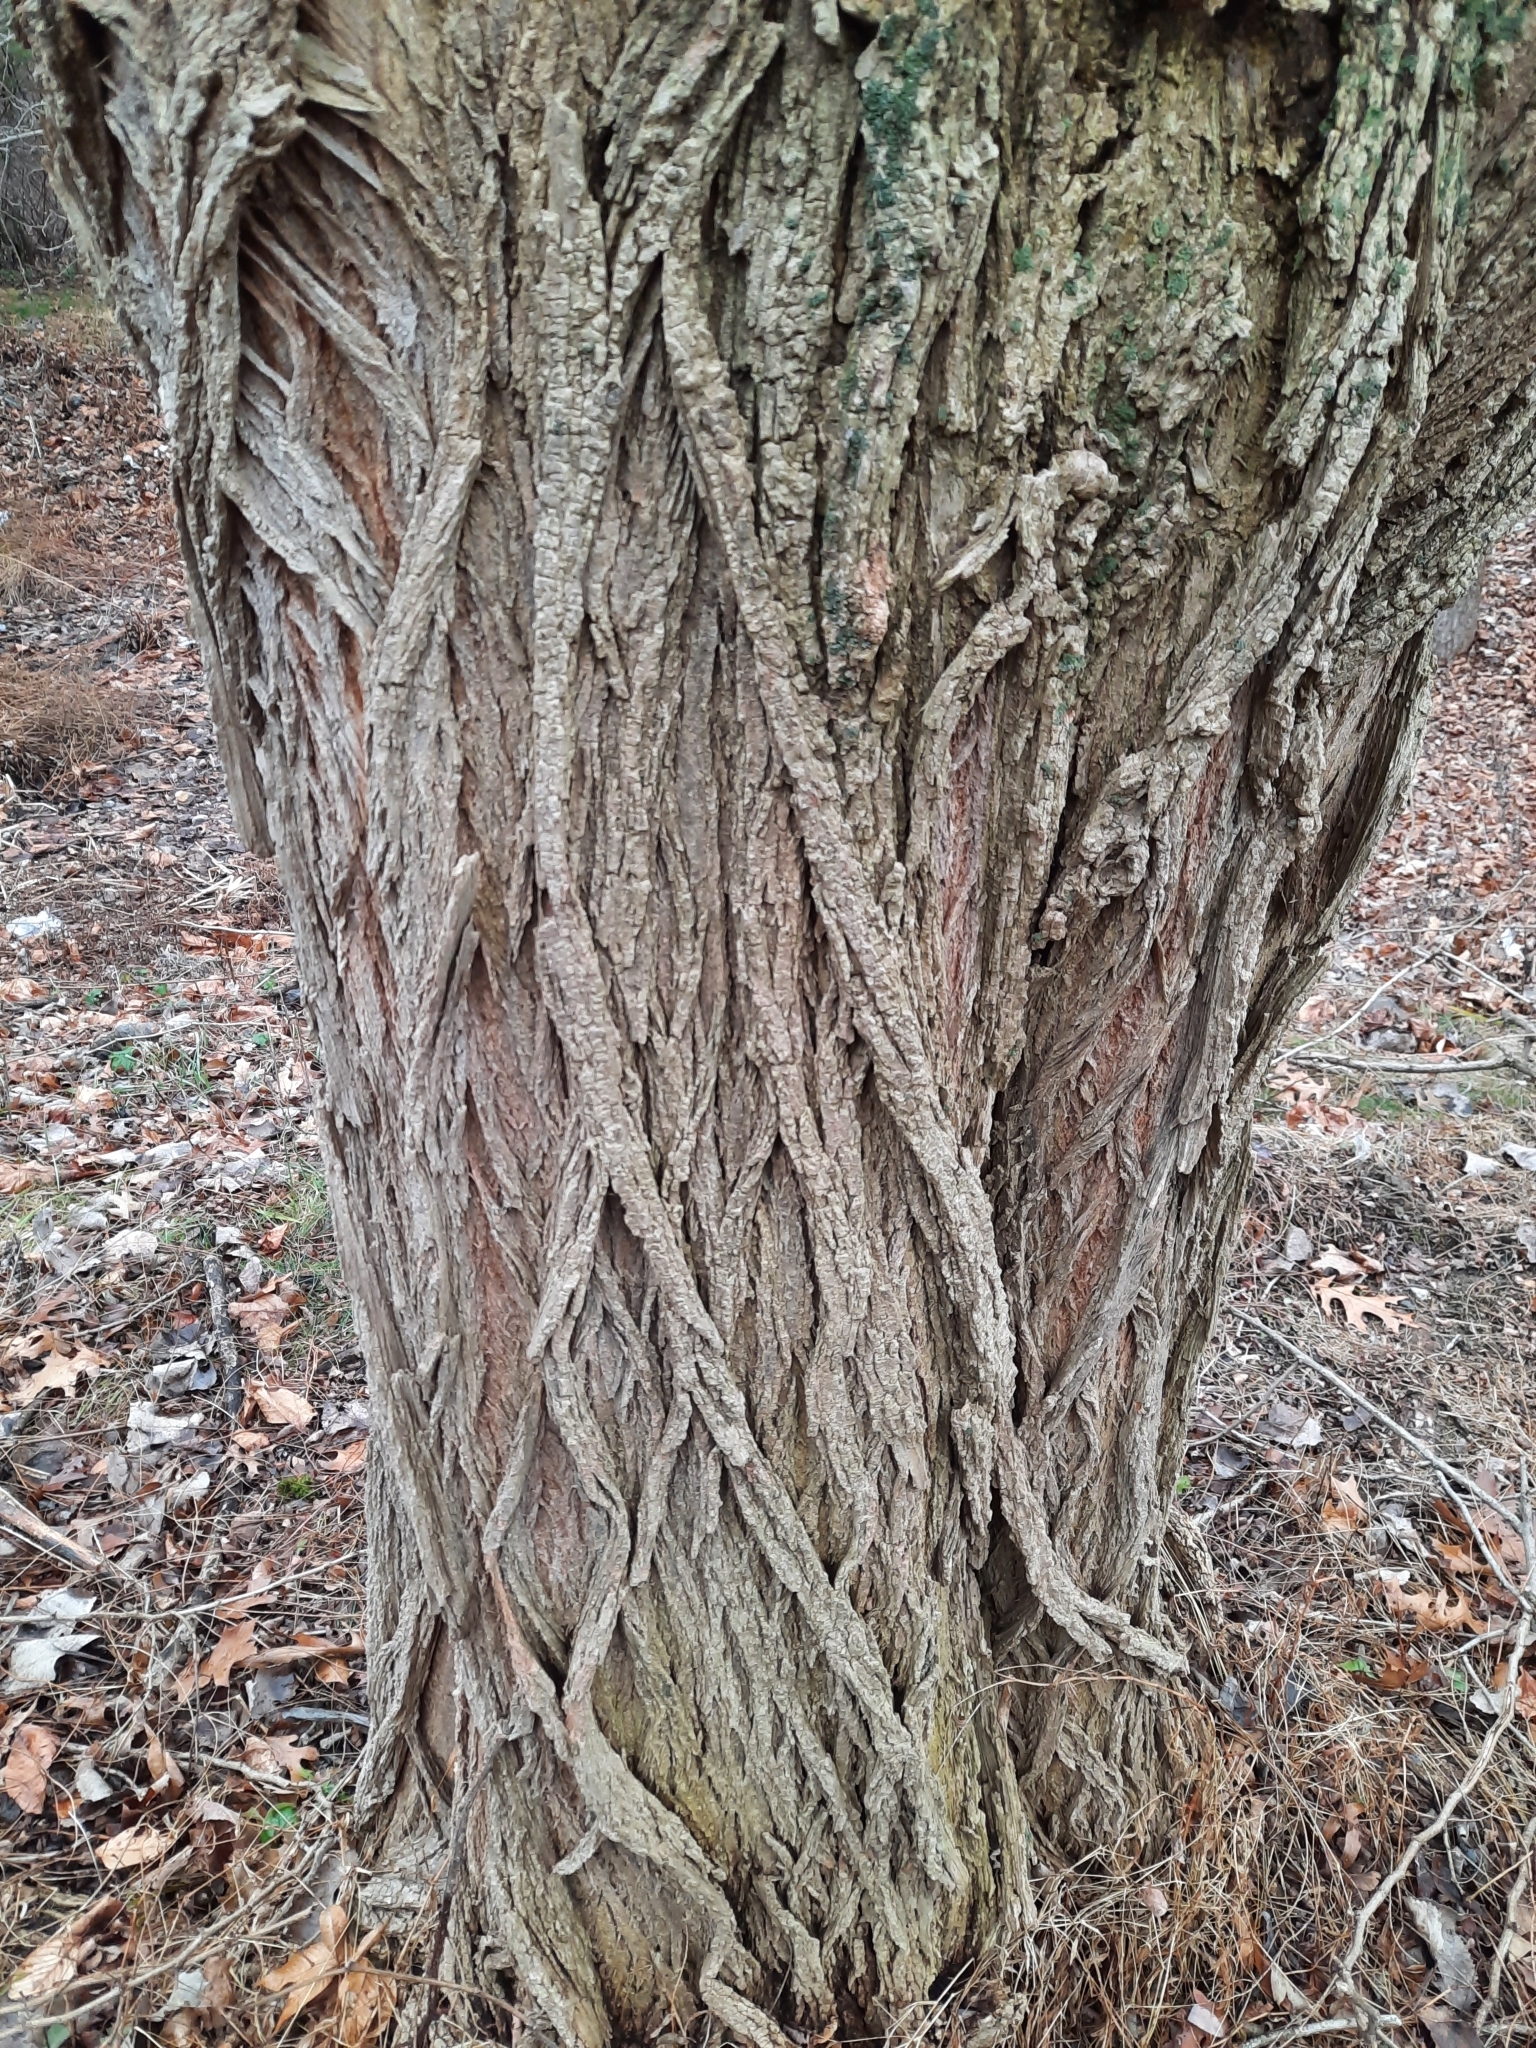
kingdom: Plantae
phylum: Tracheophyta
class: Magnoliopsida
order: Fabales
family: Fabaceae
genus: Robinia
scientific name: Robinia pseudoacacia
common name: Black locust
